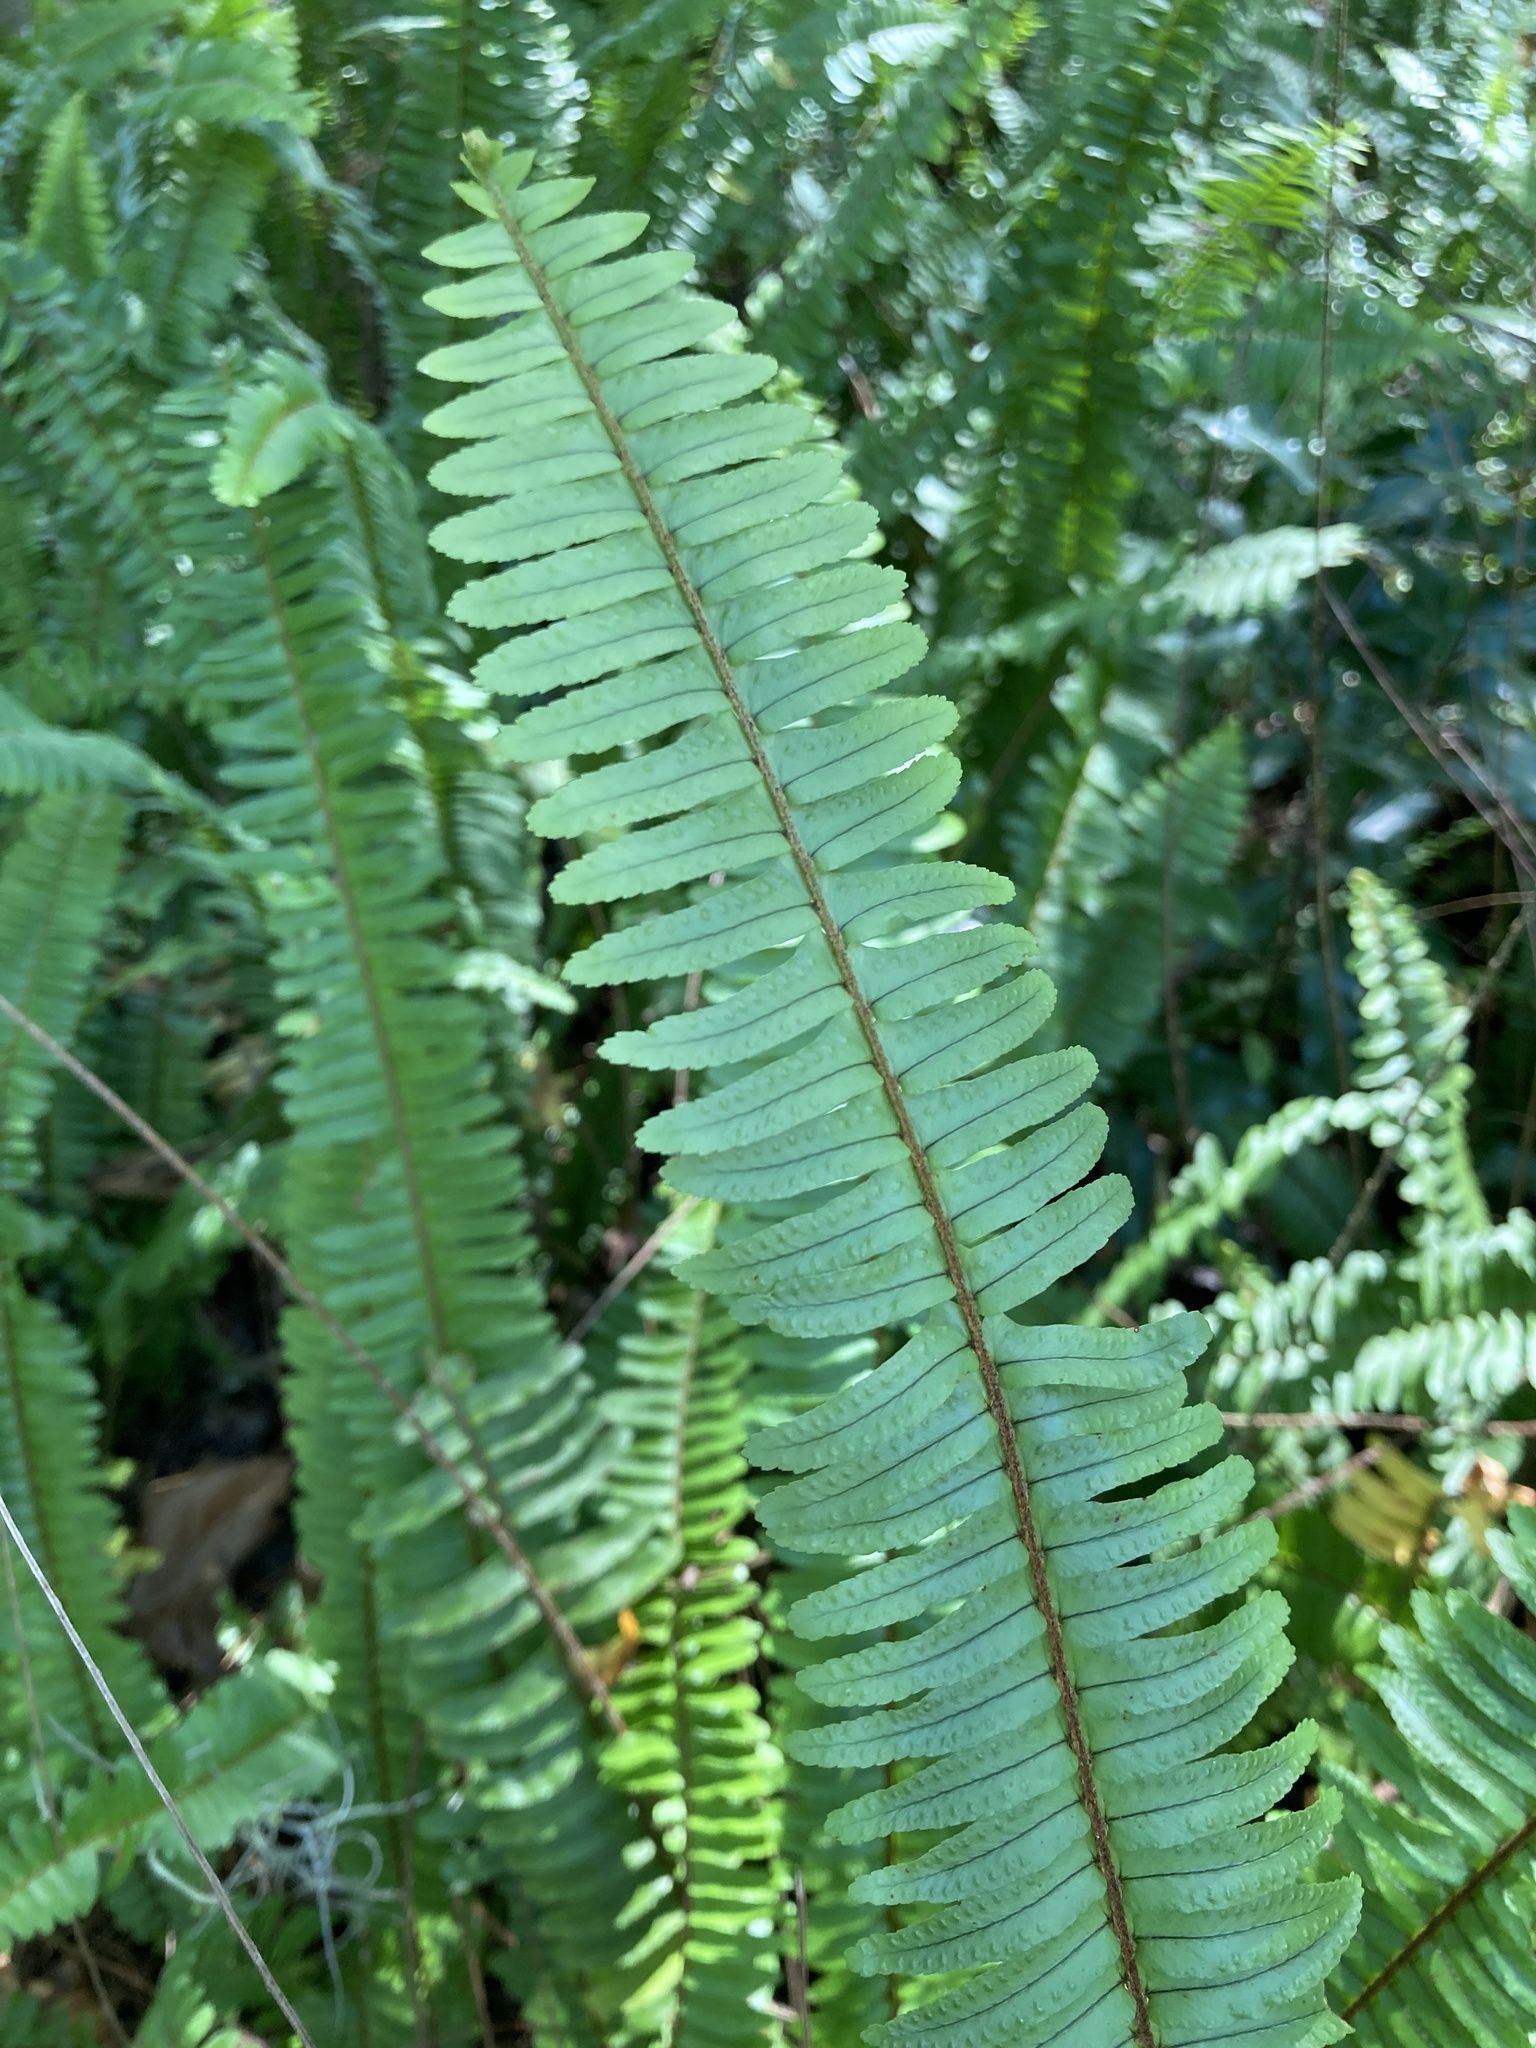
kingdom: Plantae
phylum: Tracheophyta
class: Polypodiopsida
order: Polypodiales
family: Nephrolepidaceae
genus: Nephrolepis
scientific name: Nephrolepis cordifolia
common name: Narrow swordfern
